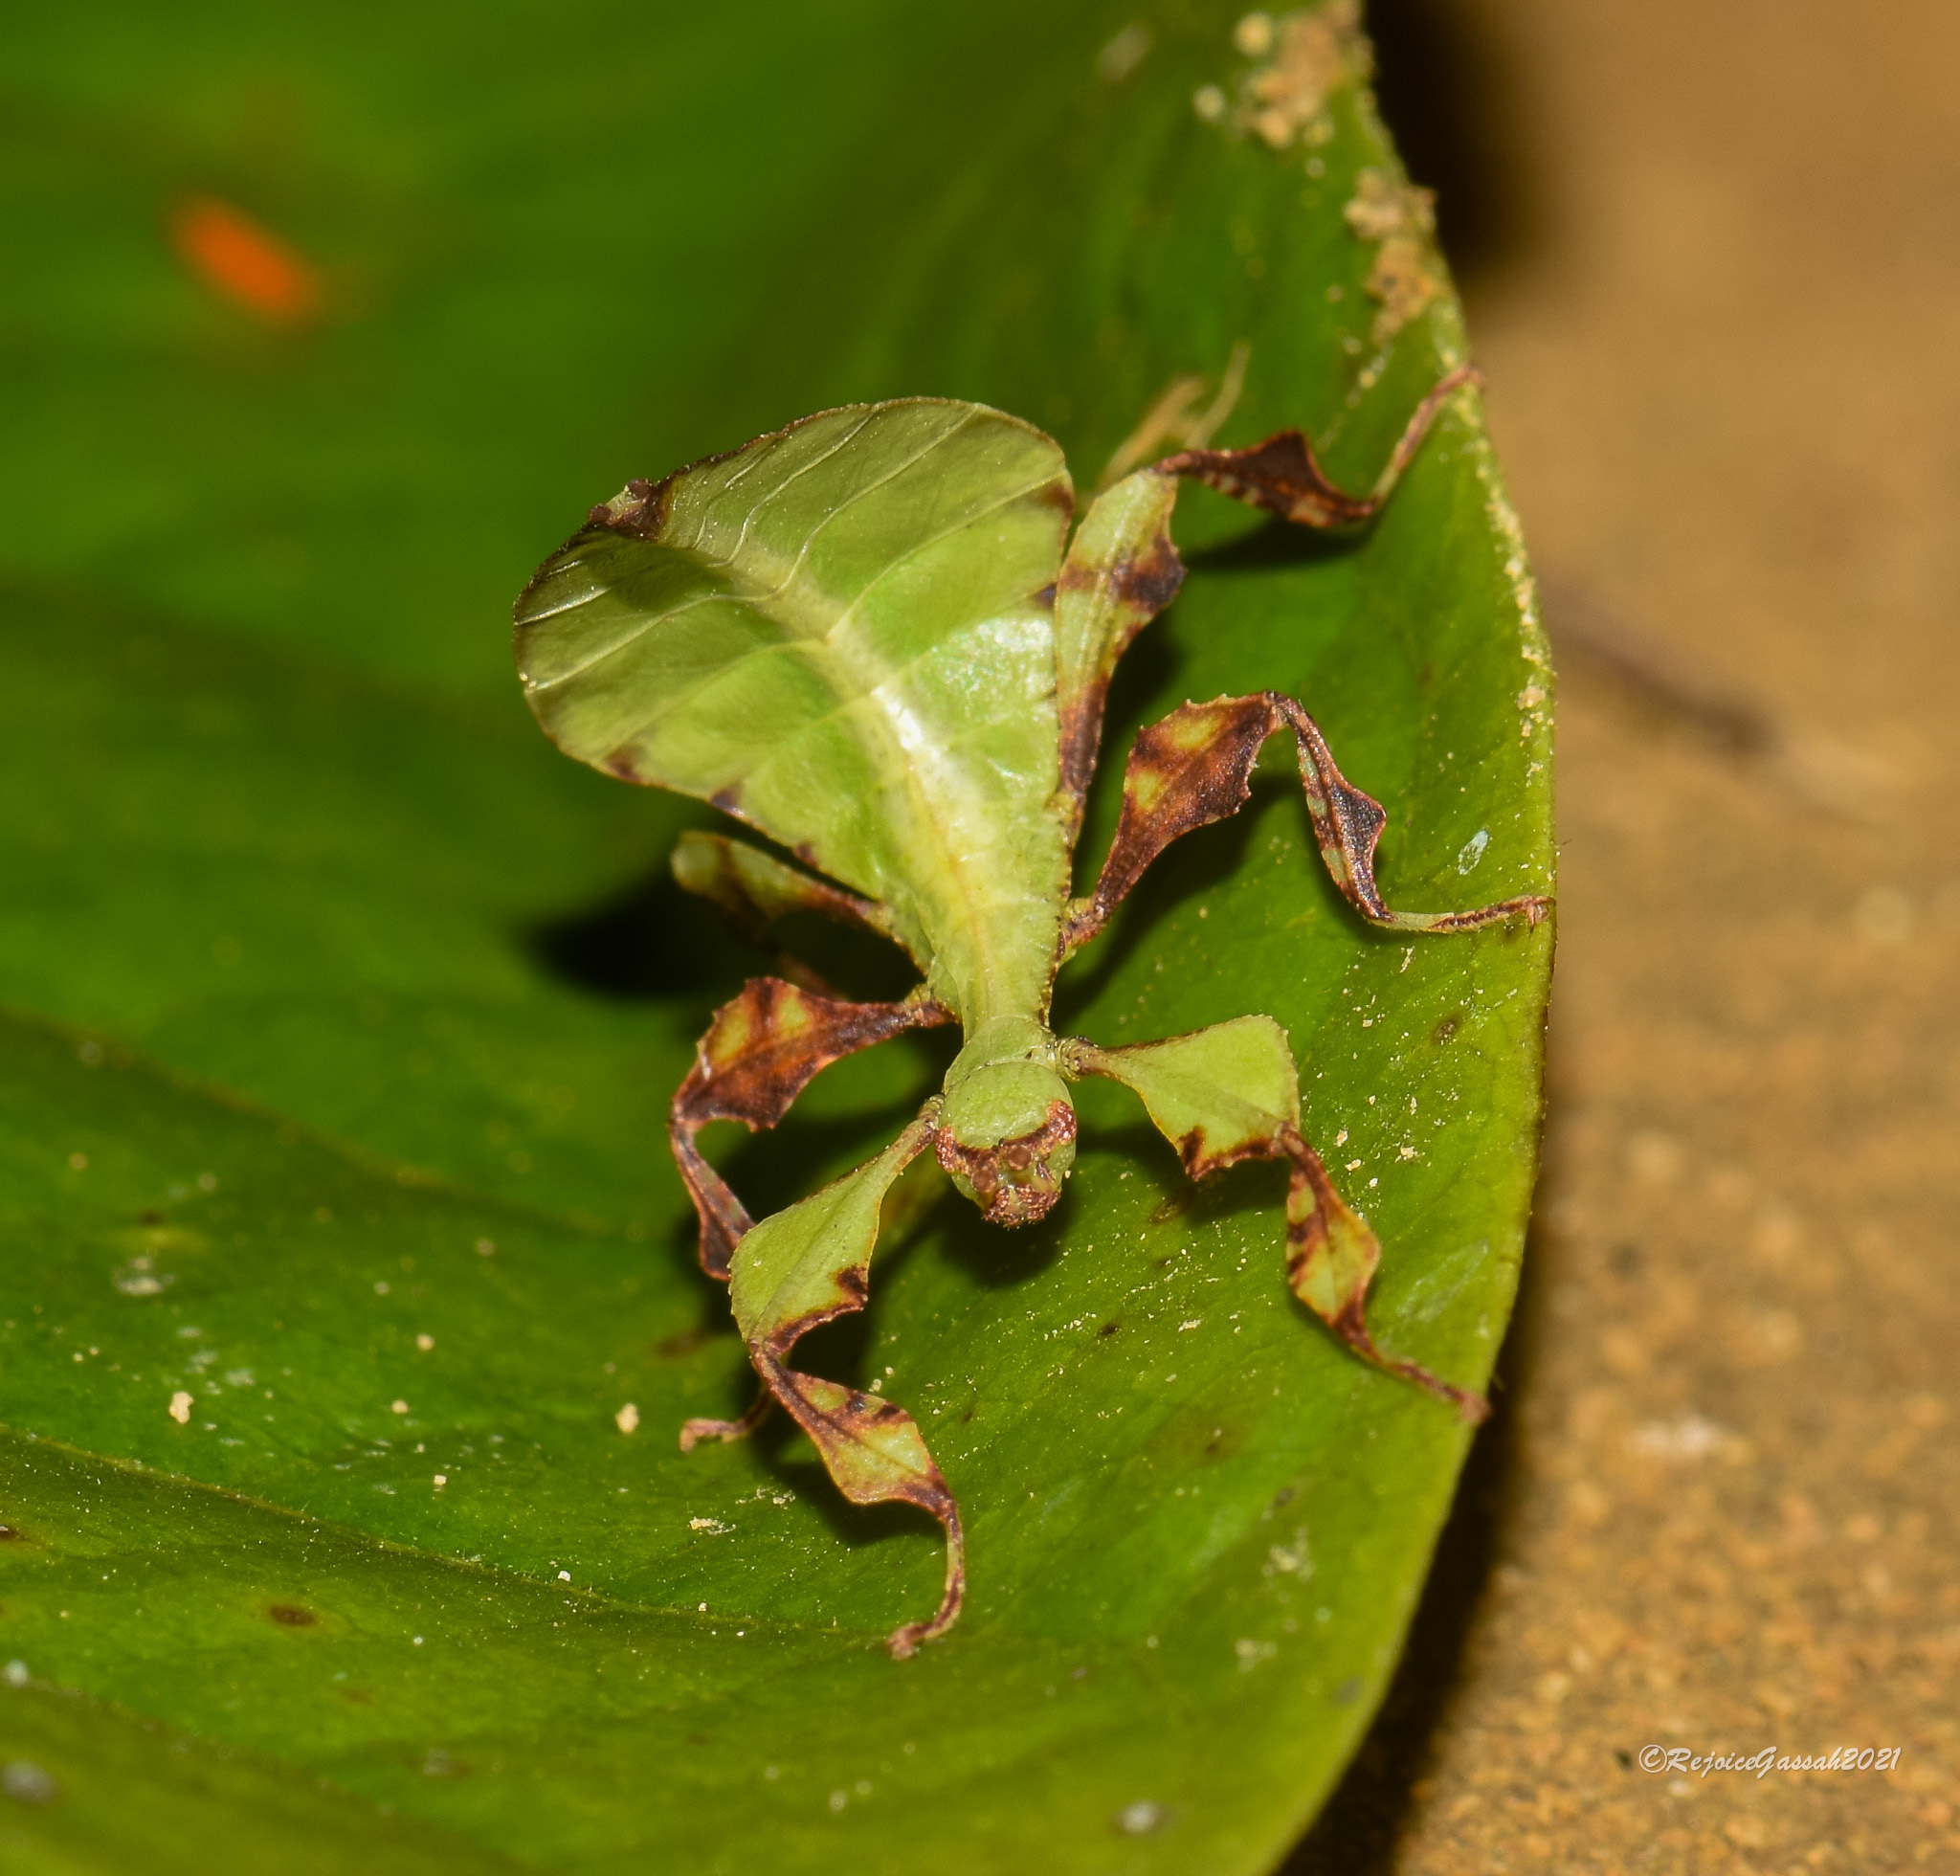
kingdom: Animalia
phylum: Arthropoda
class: Insecta
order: Phasmida
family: Phylliidae
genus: Pulchriphyllium
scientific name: Pulchriphyllium bioculatum
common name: Gray's leaf insect
